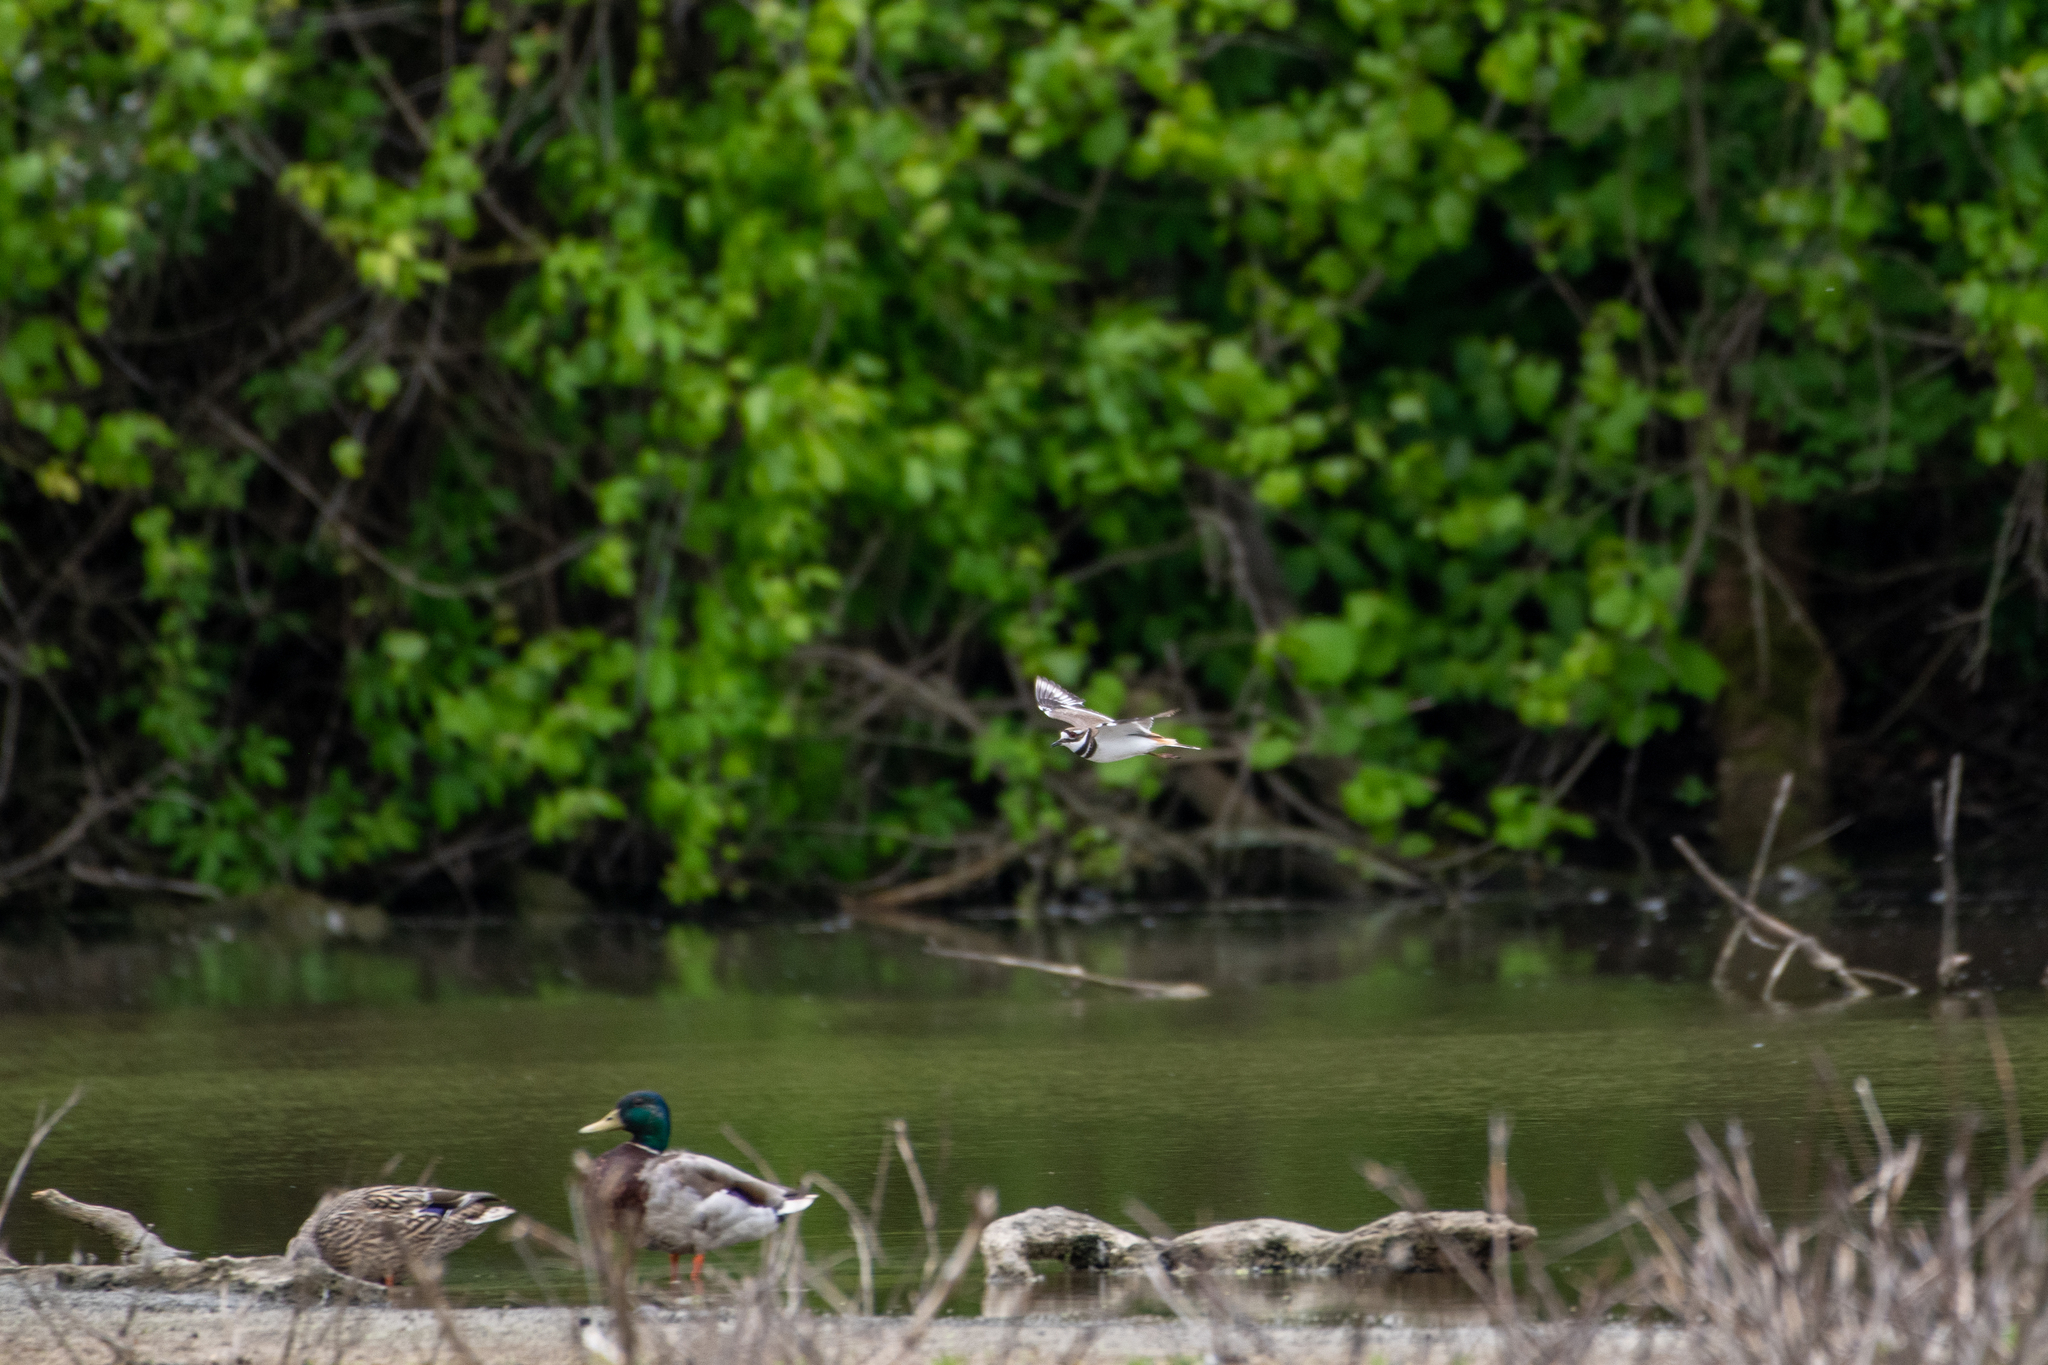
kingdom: Animalia
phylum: Chordata
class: Aves
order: Anseriformes
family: Anatidae
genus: Anas
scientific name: Anas platyrhynchos
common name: Mallard
